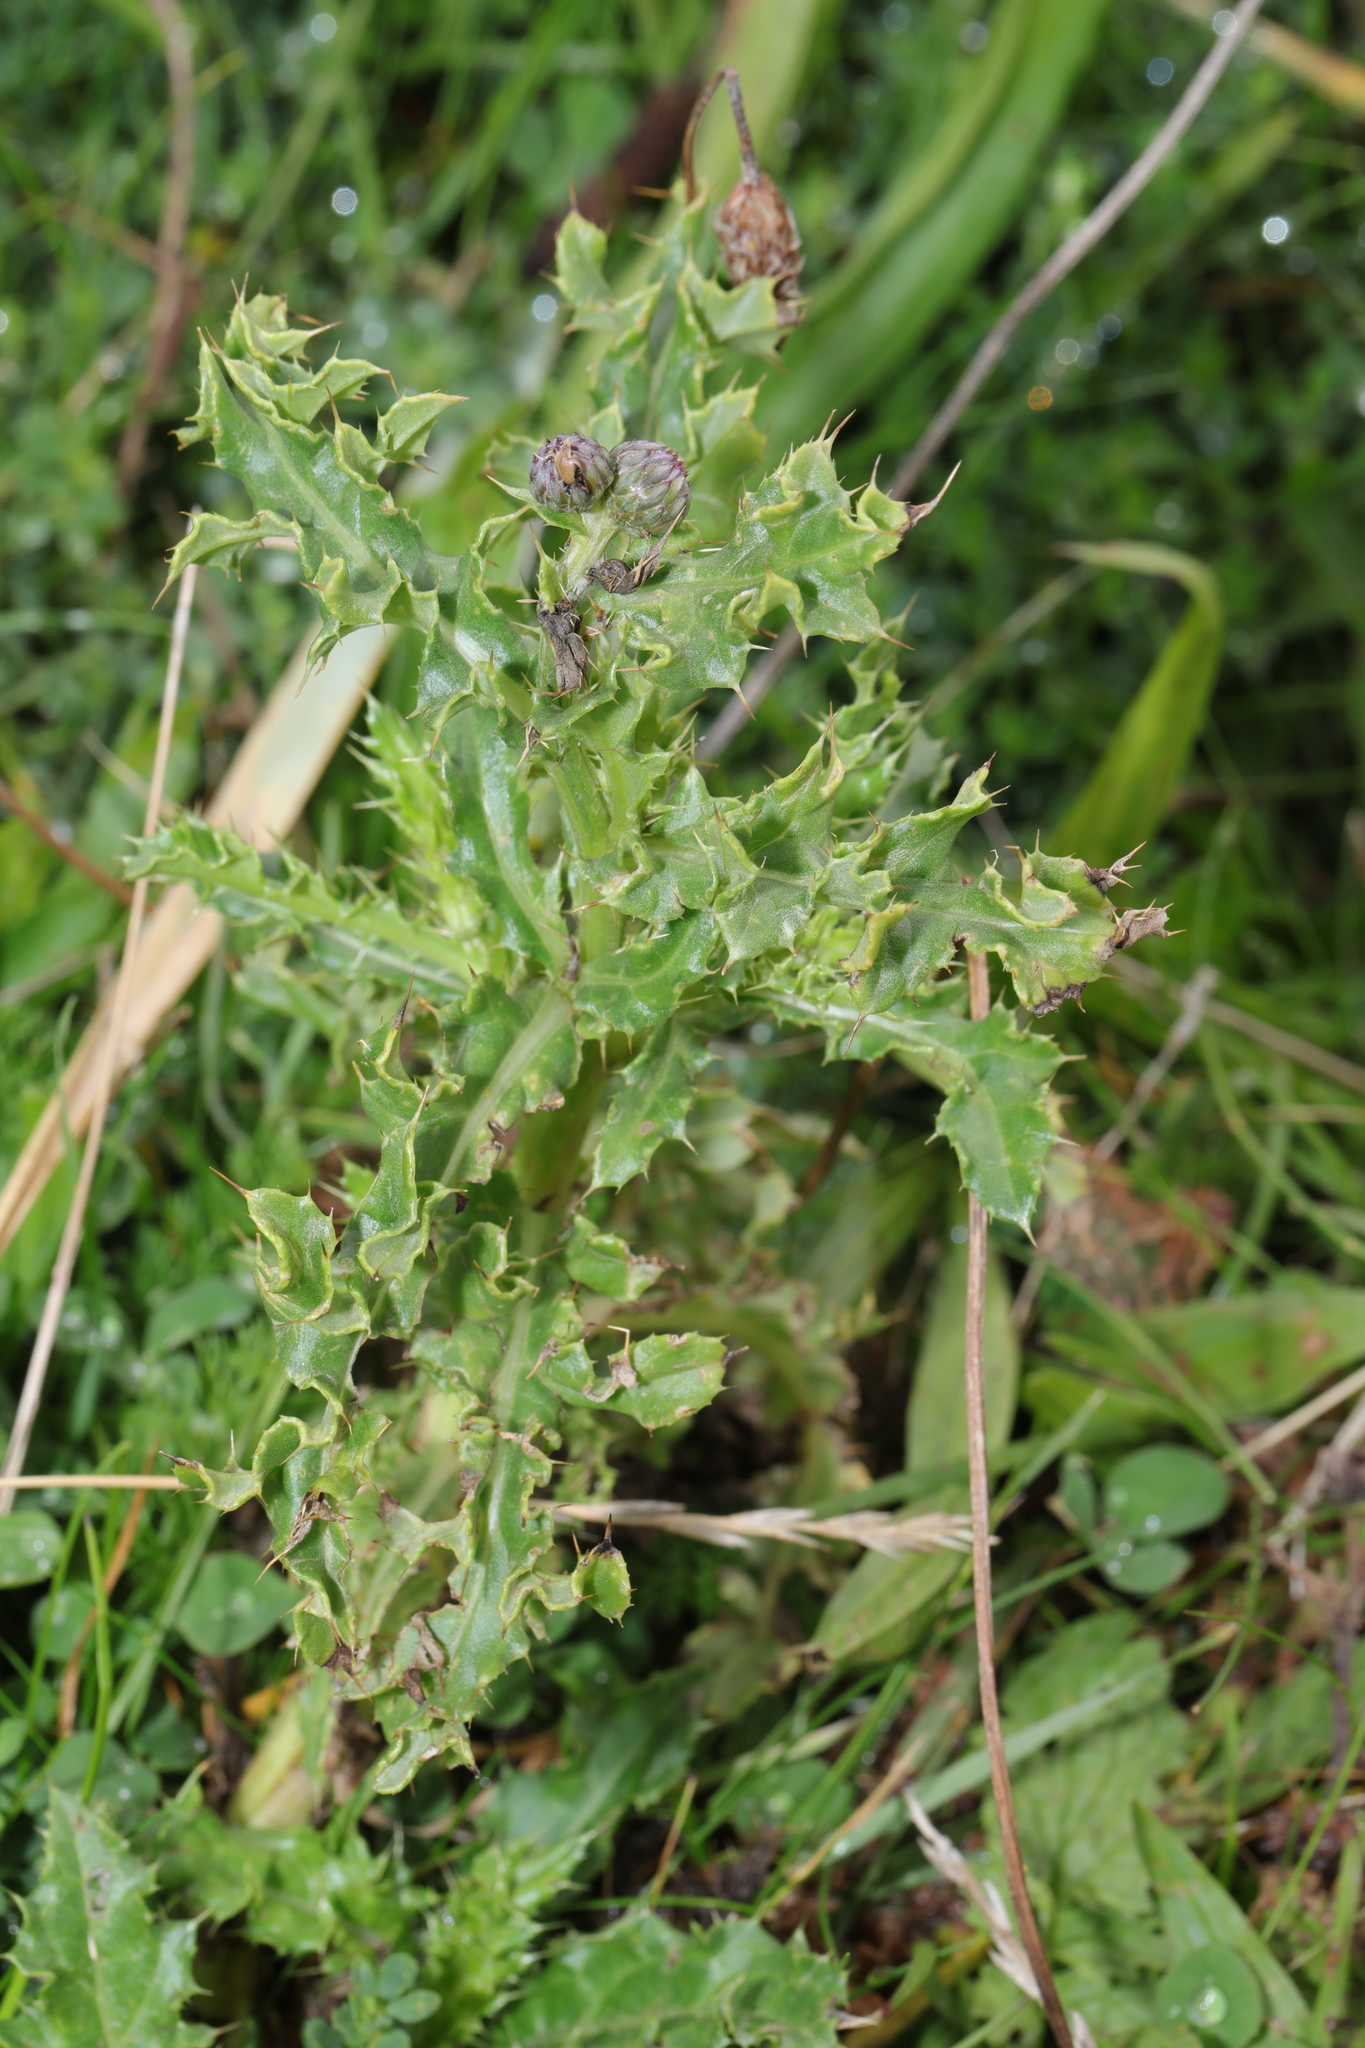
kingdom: Plantae
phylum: Tracheophyta
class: Magnoliopsida
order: Asterales
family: Asteraceae
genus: Cirsium
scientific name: Cirsium arvense
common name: Creeping thistle
